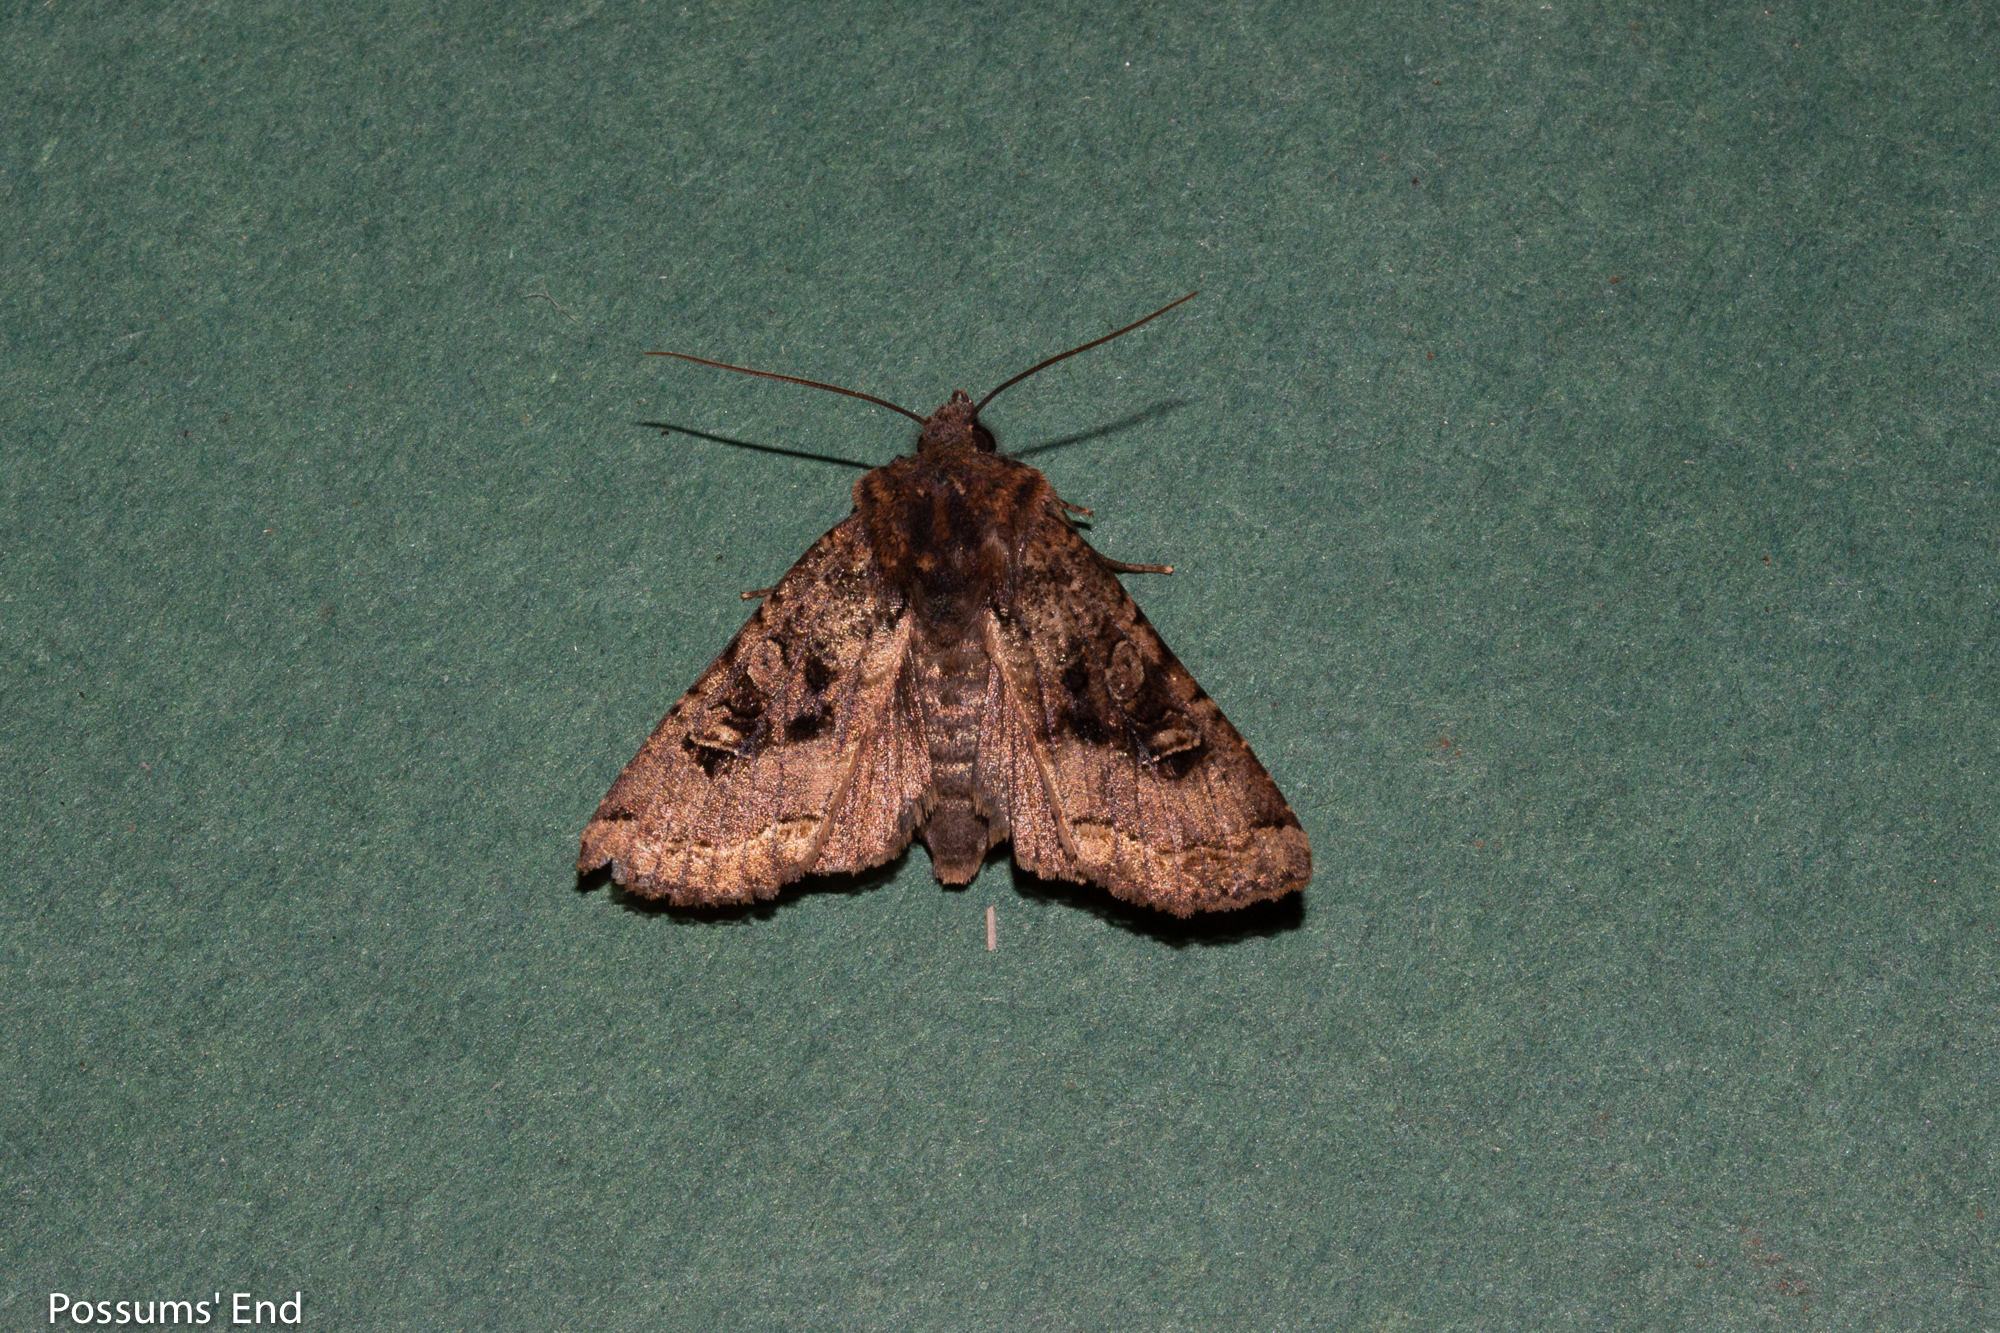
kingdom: Animalia
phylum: Arthropoda
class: Insecta
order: Lepidoptera
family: Noctuidae
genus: Meterana
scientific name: Meterana tartaraea
